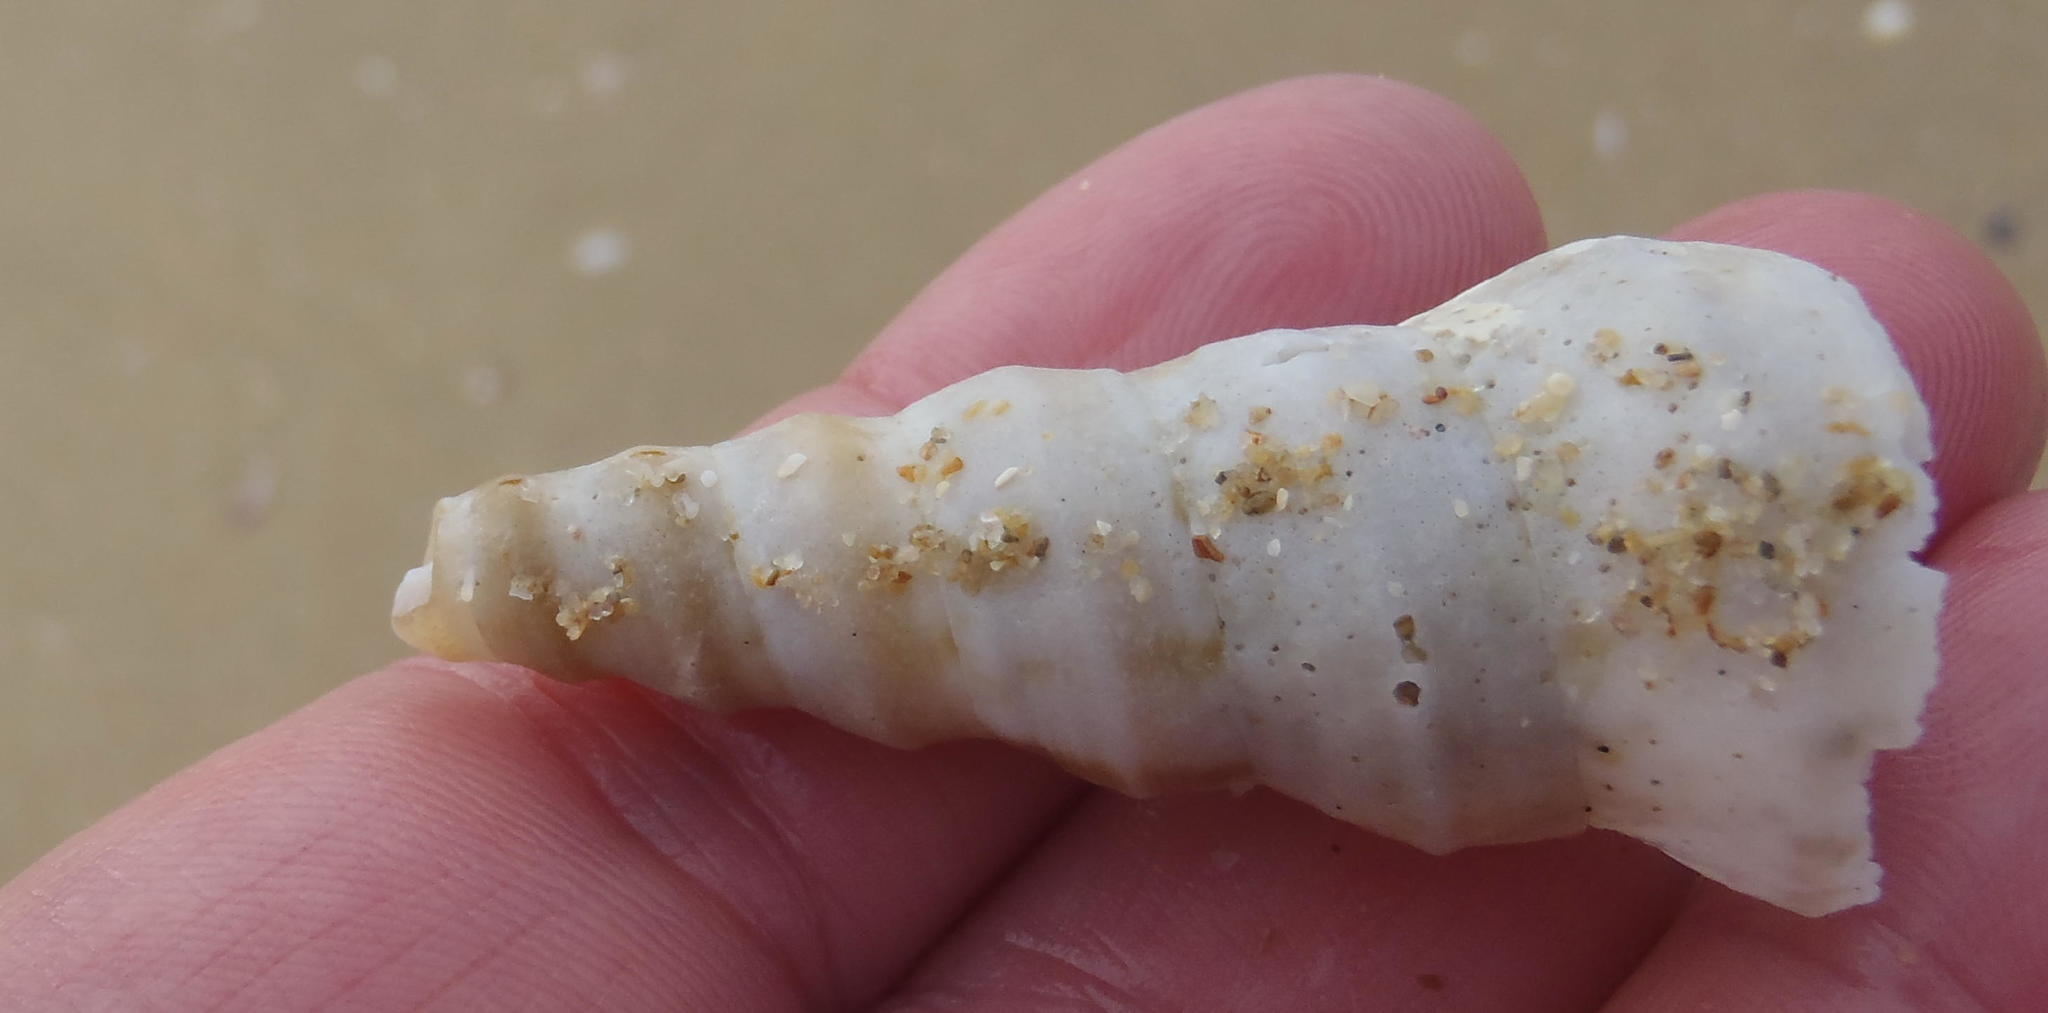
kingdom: Animalia
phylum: Mollusca
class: Gastropoda
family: Turritellidae
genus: Turritella
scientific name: Turritella carinifera
